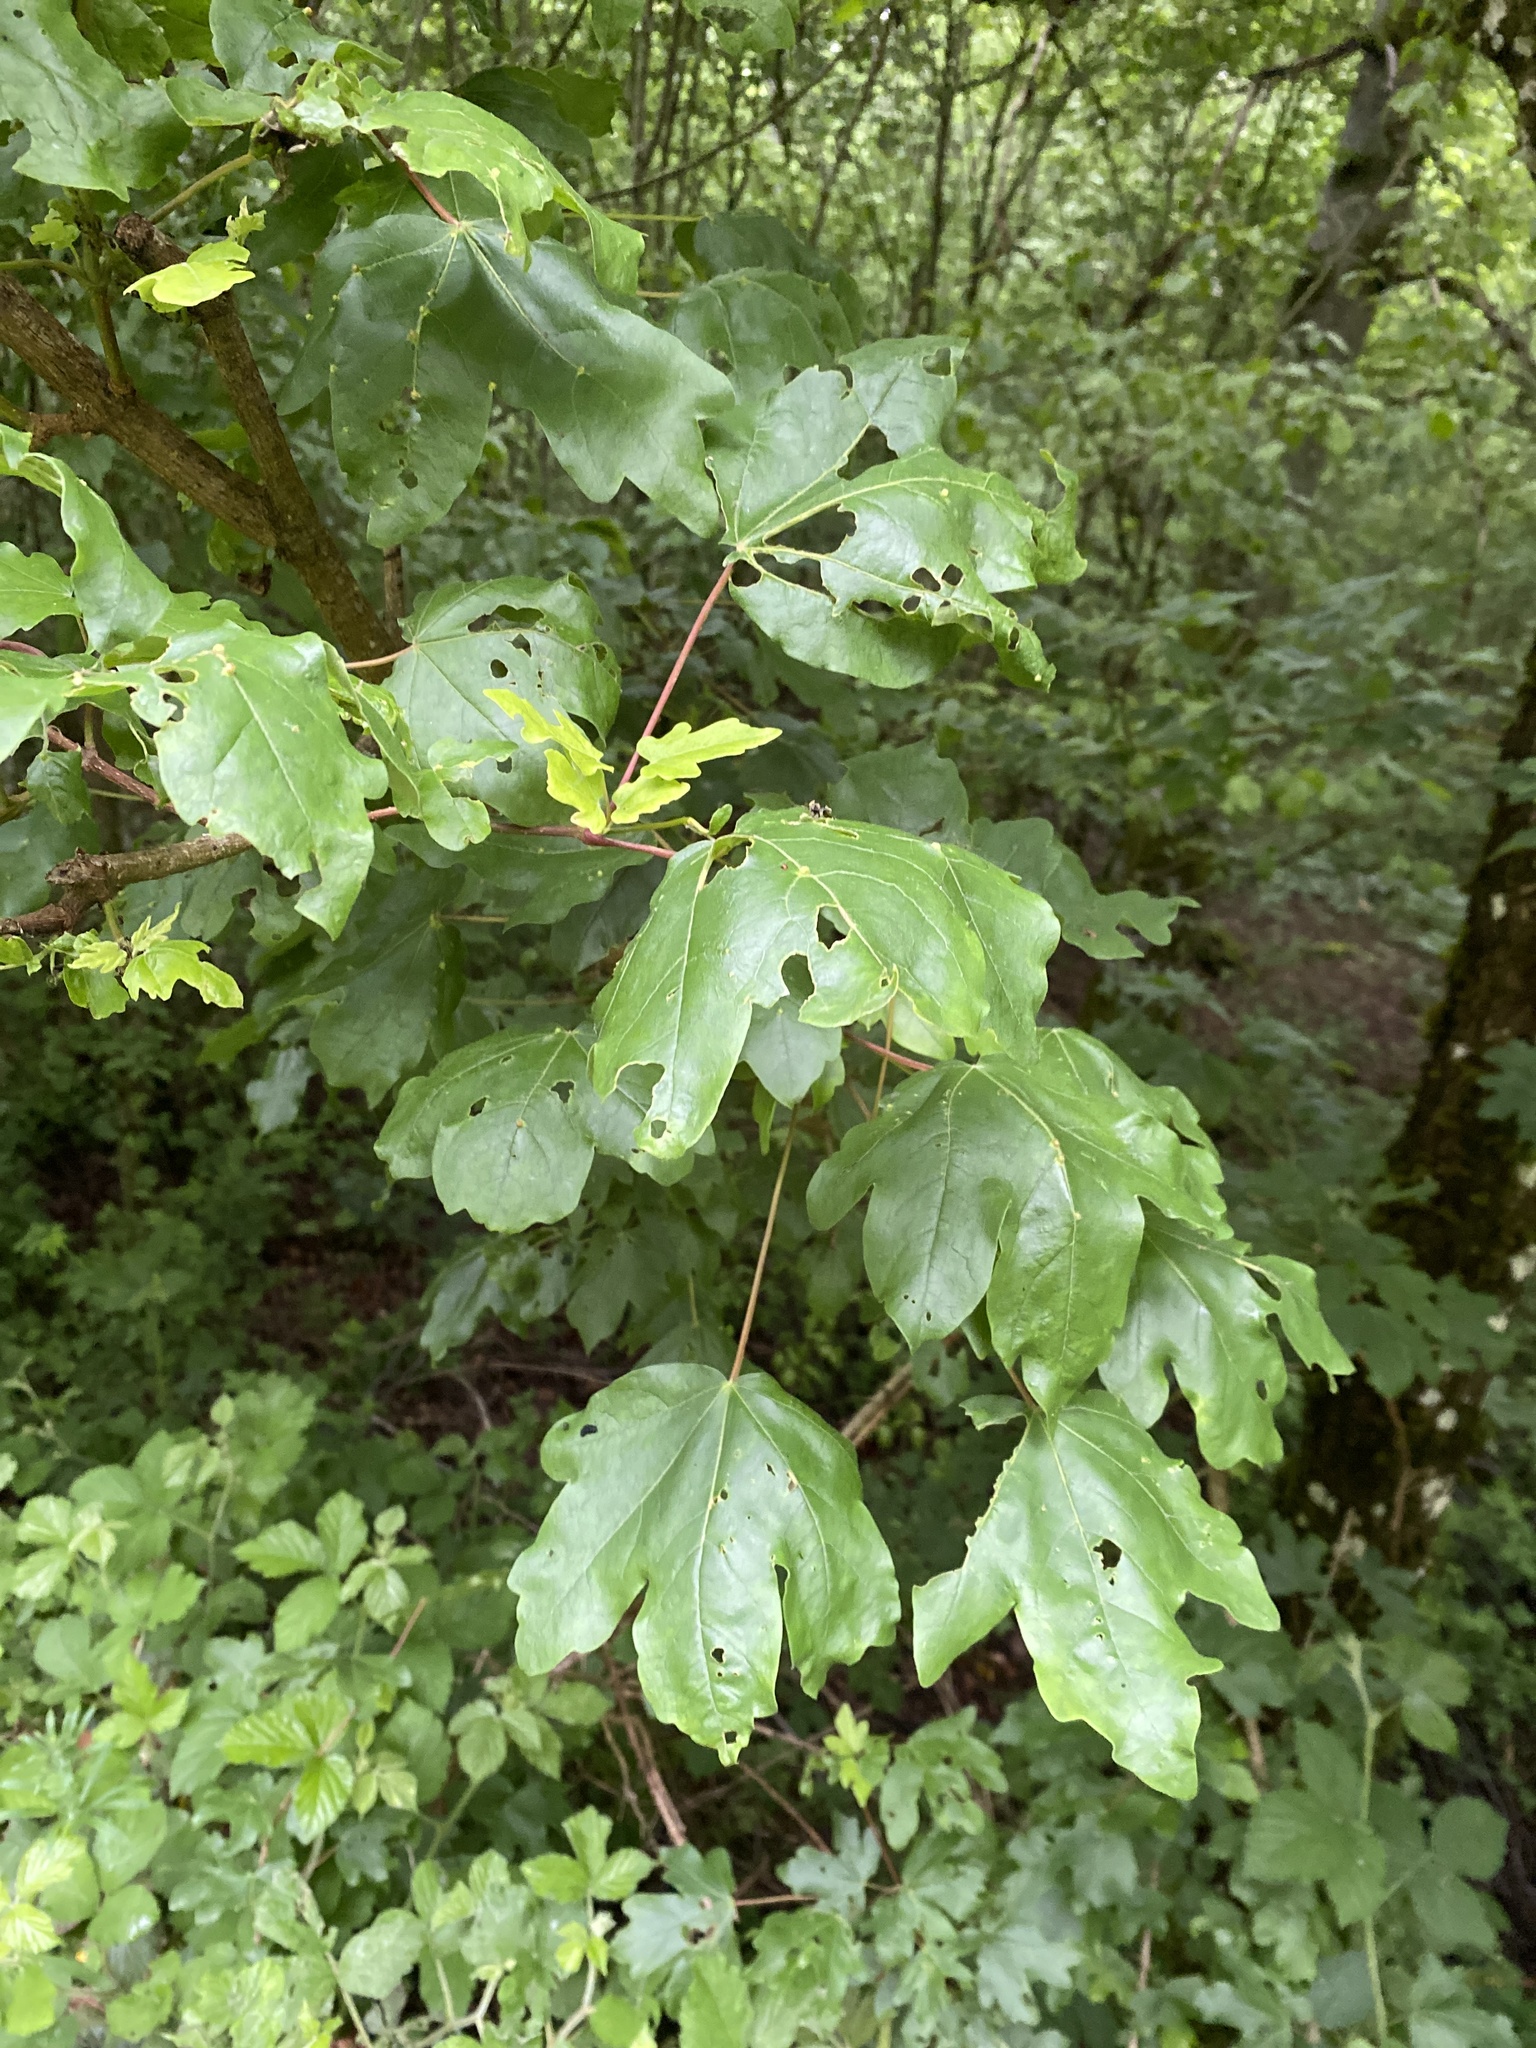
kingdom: Plantae
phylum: Tracheophyta
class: Magnoliopsida
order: Sapindales
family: Sapindaceae
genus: Acer
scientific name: Acer campestre
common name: Field maple
